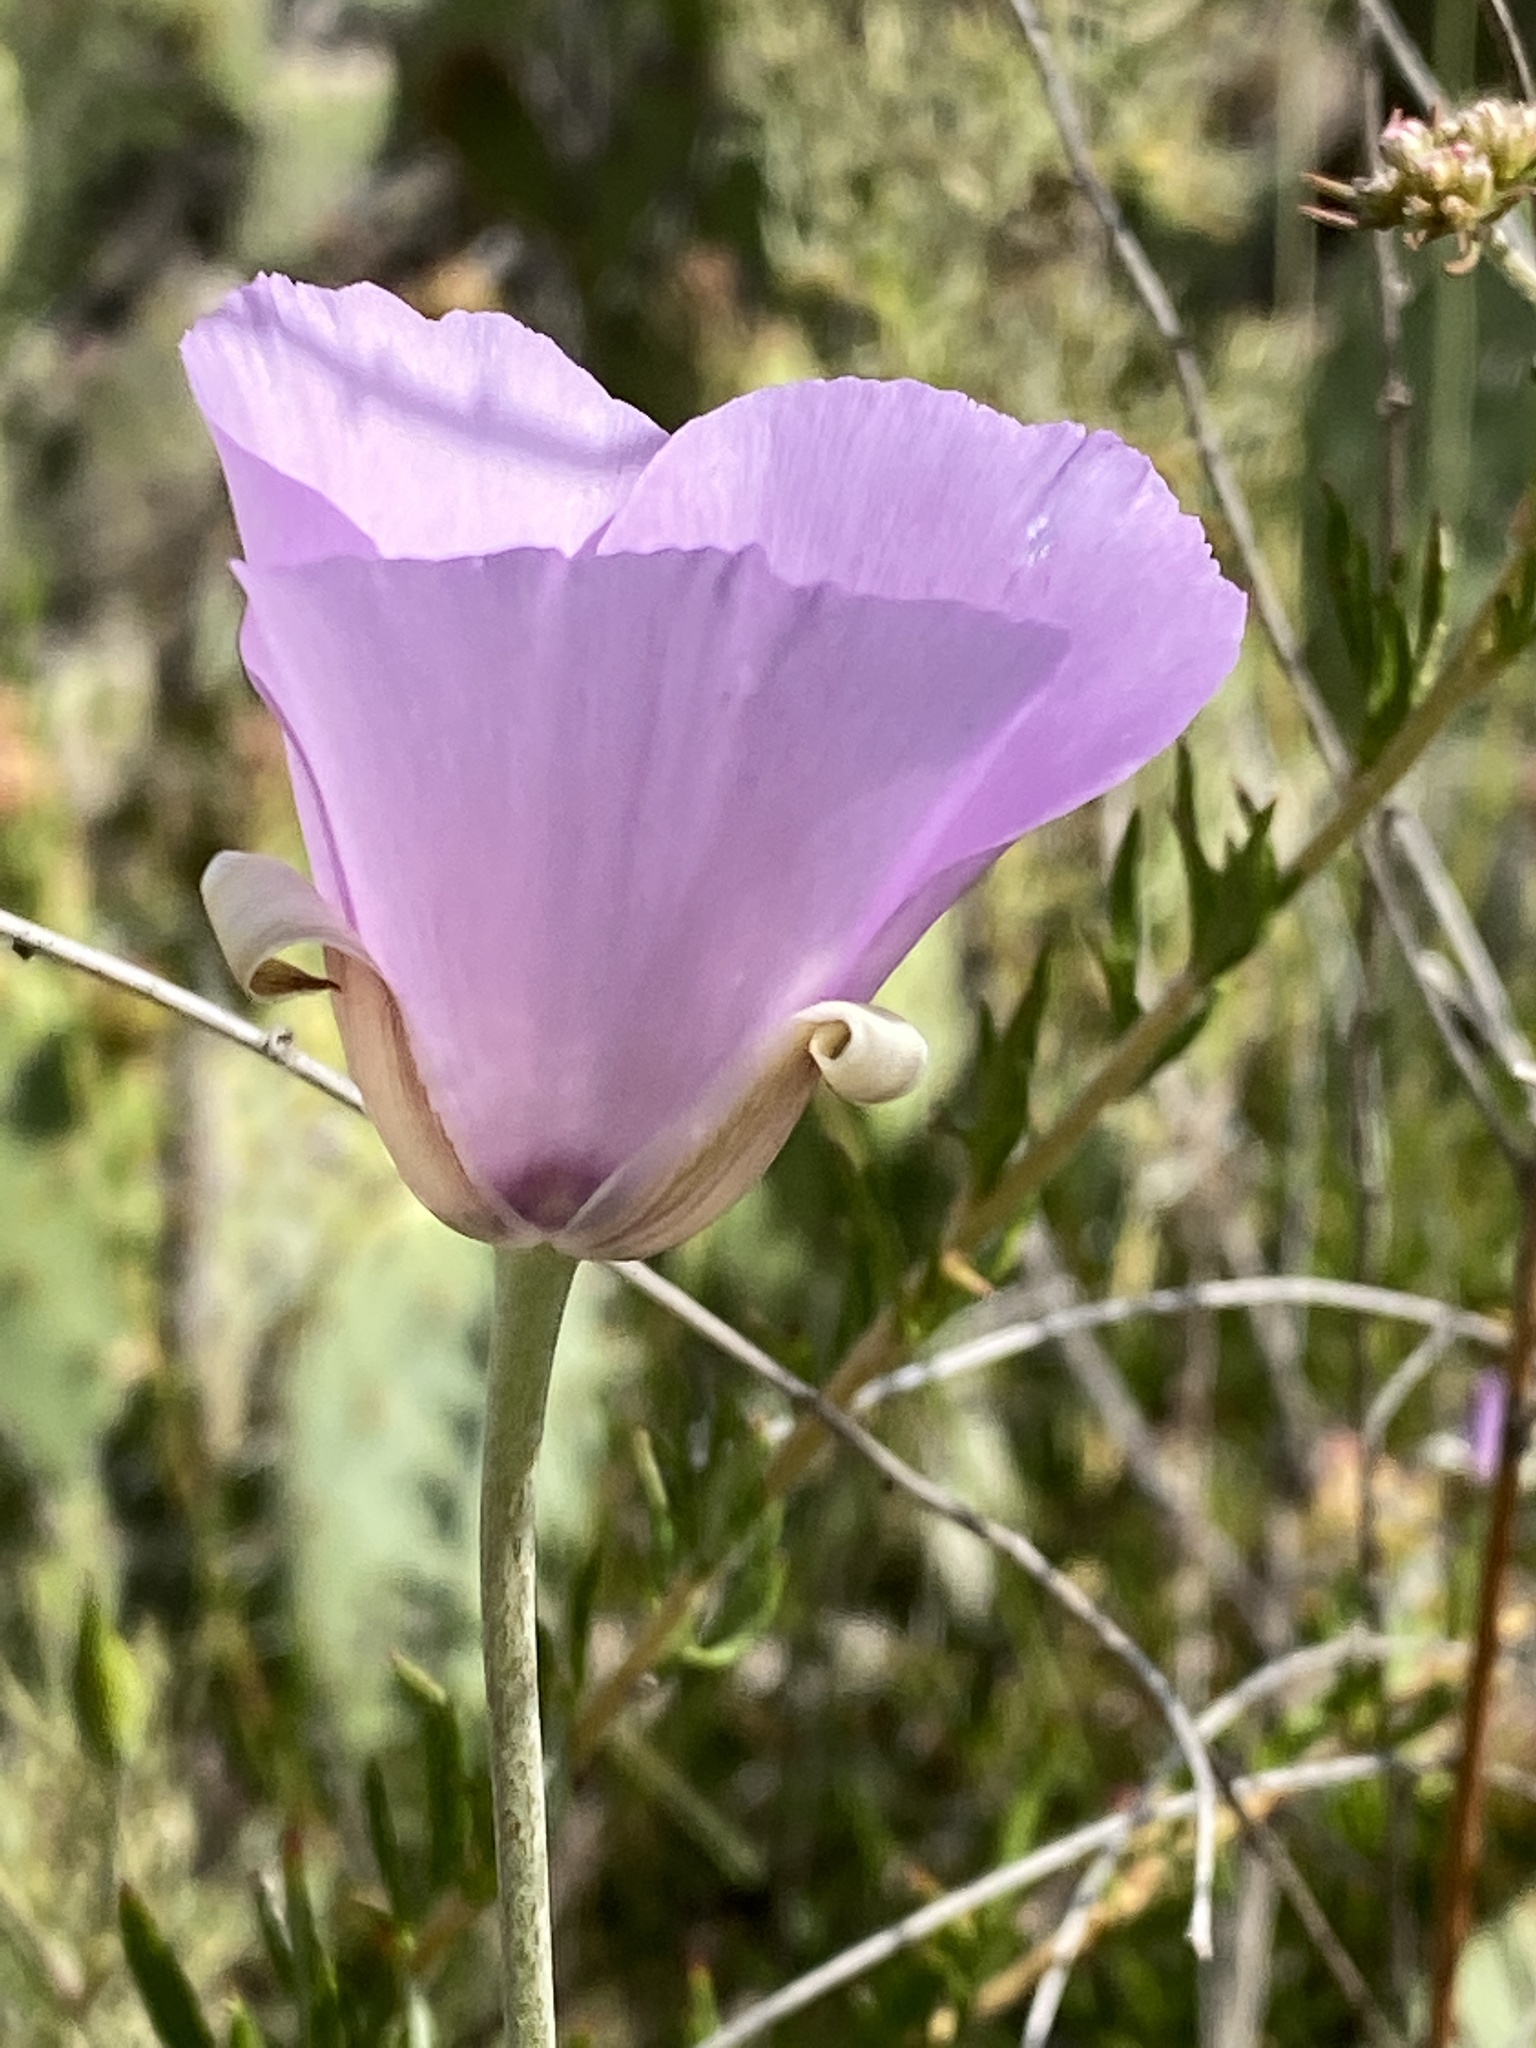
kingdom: Plantae
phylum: Tracheophyta
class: Liliopsida
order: Liliales
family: Liliaceae
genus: Calochortus
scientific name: Calochortus splendens
